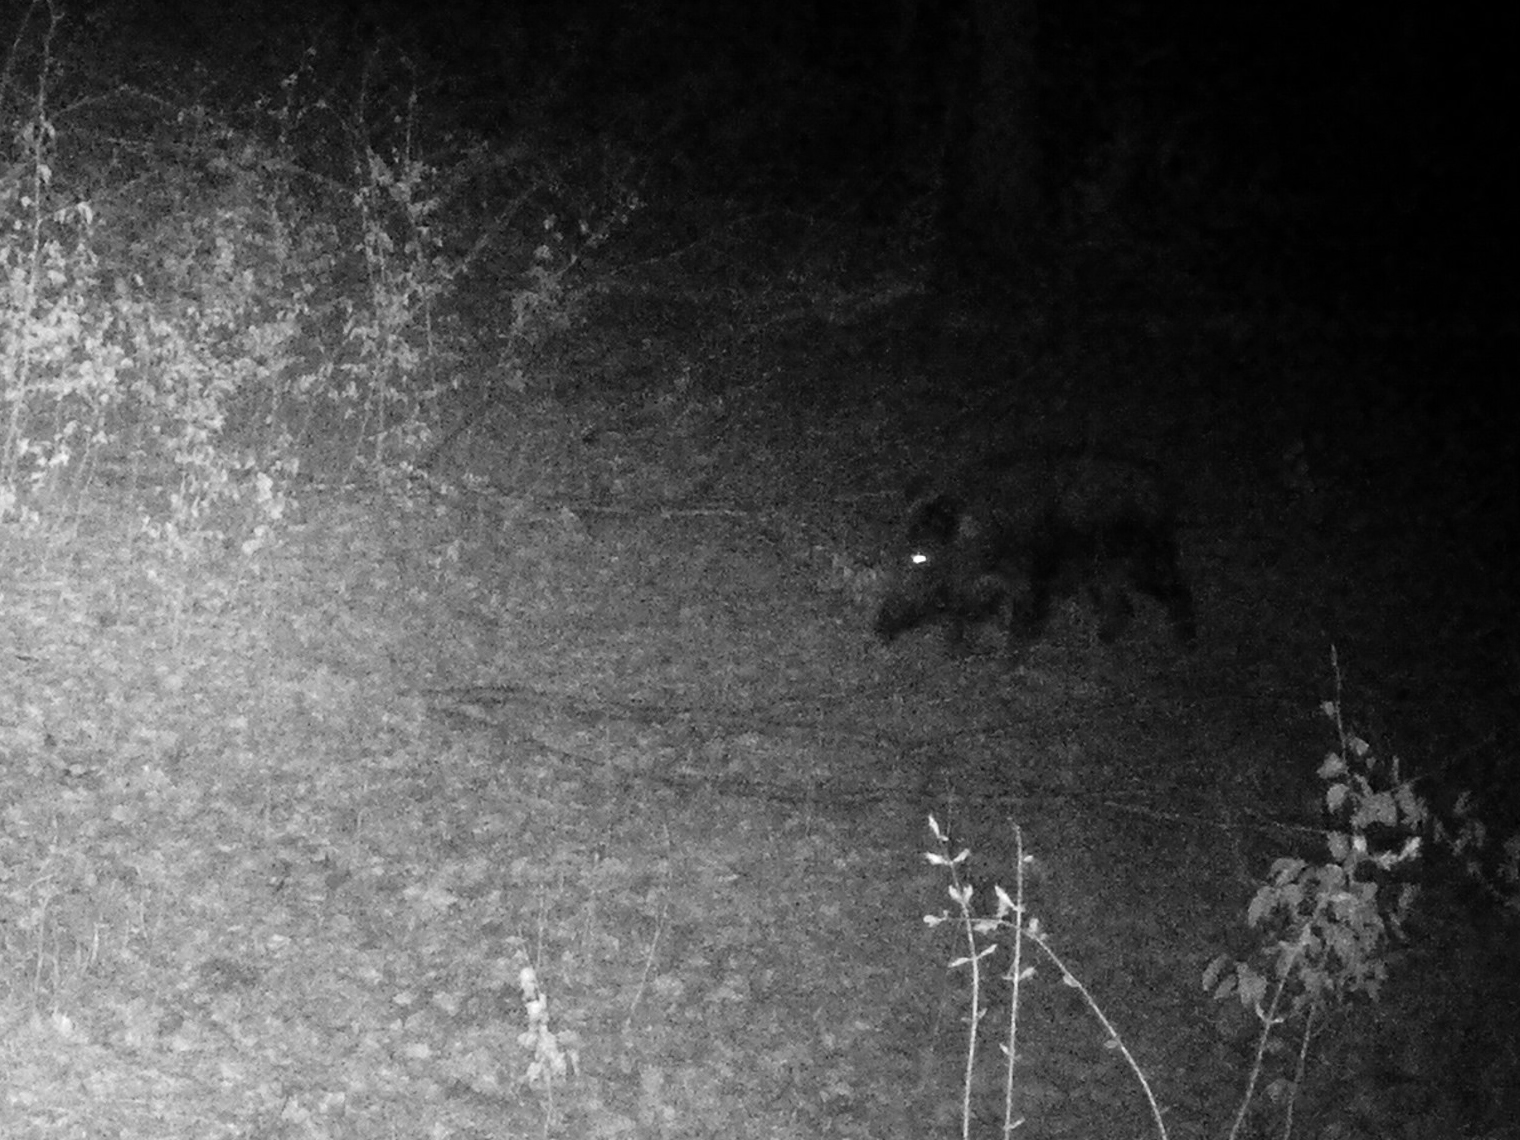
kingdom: Animalia
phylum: Chordata
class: Mammalia
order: Artiodactyla
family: Suidae
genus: Sus
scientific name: Sus scrofa
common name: Wild boar
